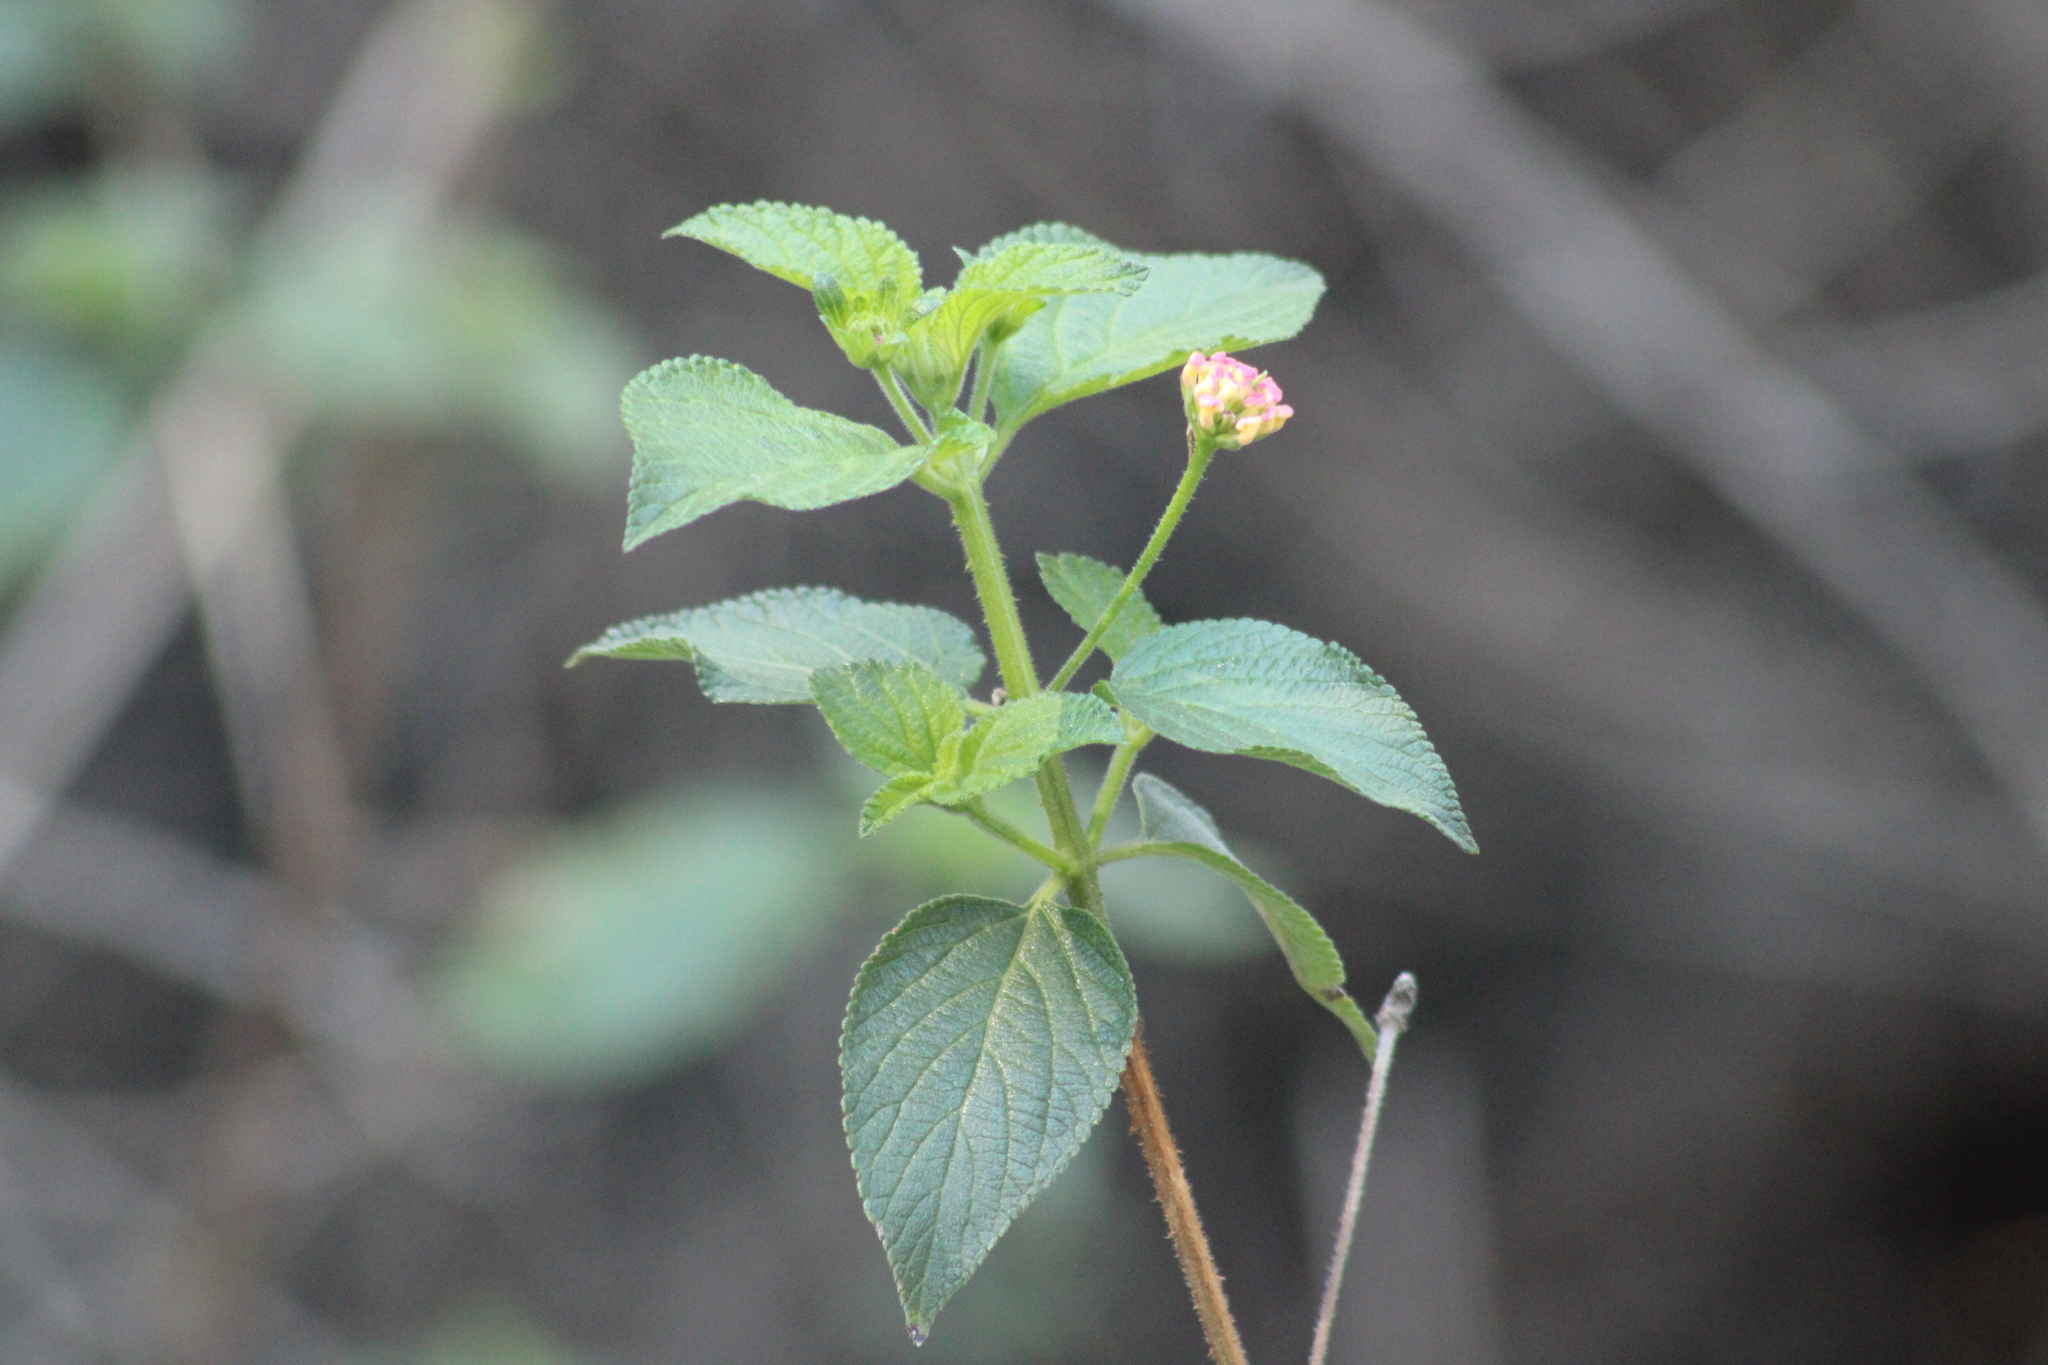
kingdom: Plantae
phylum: Tracheophyta
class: Magnoliopsida
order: Lamiales
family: Verbenaceae
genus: Lantana
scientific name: Lantana camara
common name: Lantana
